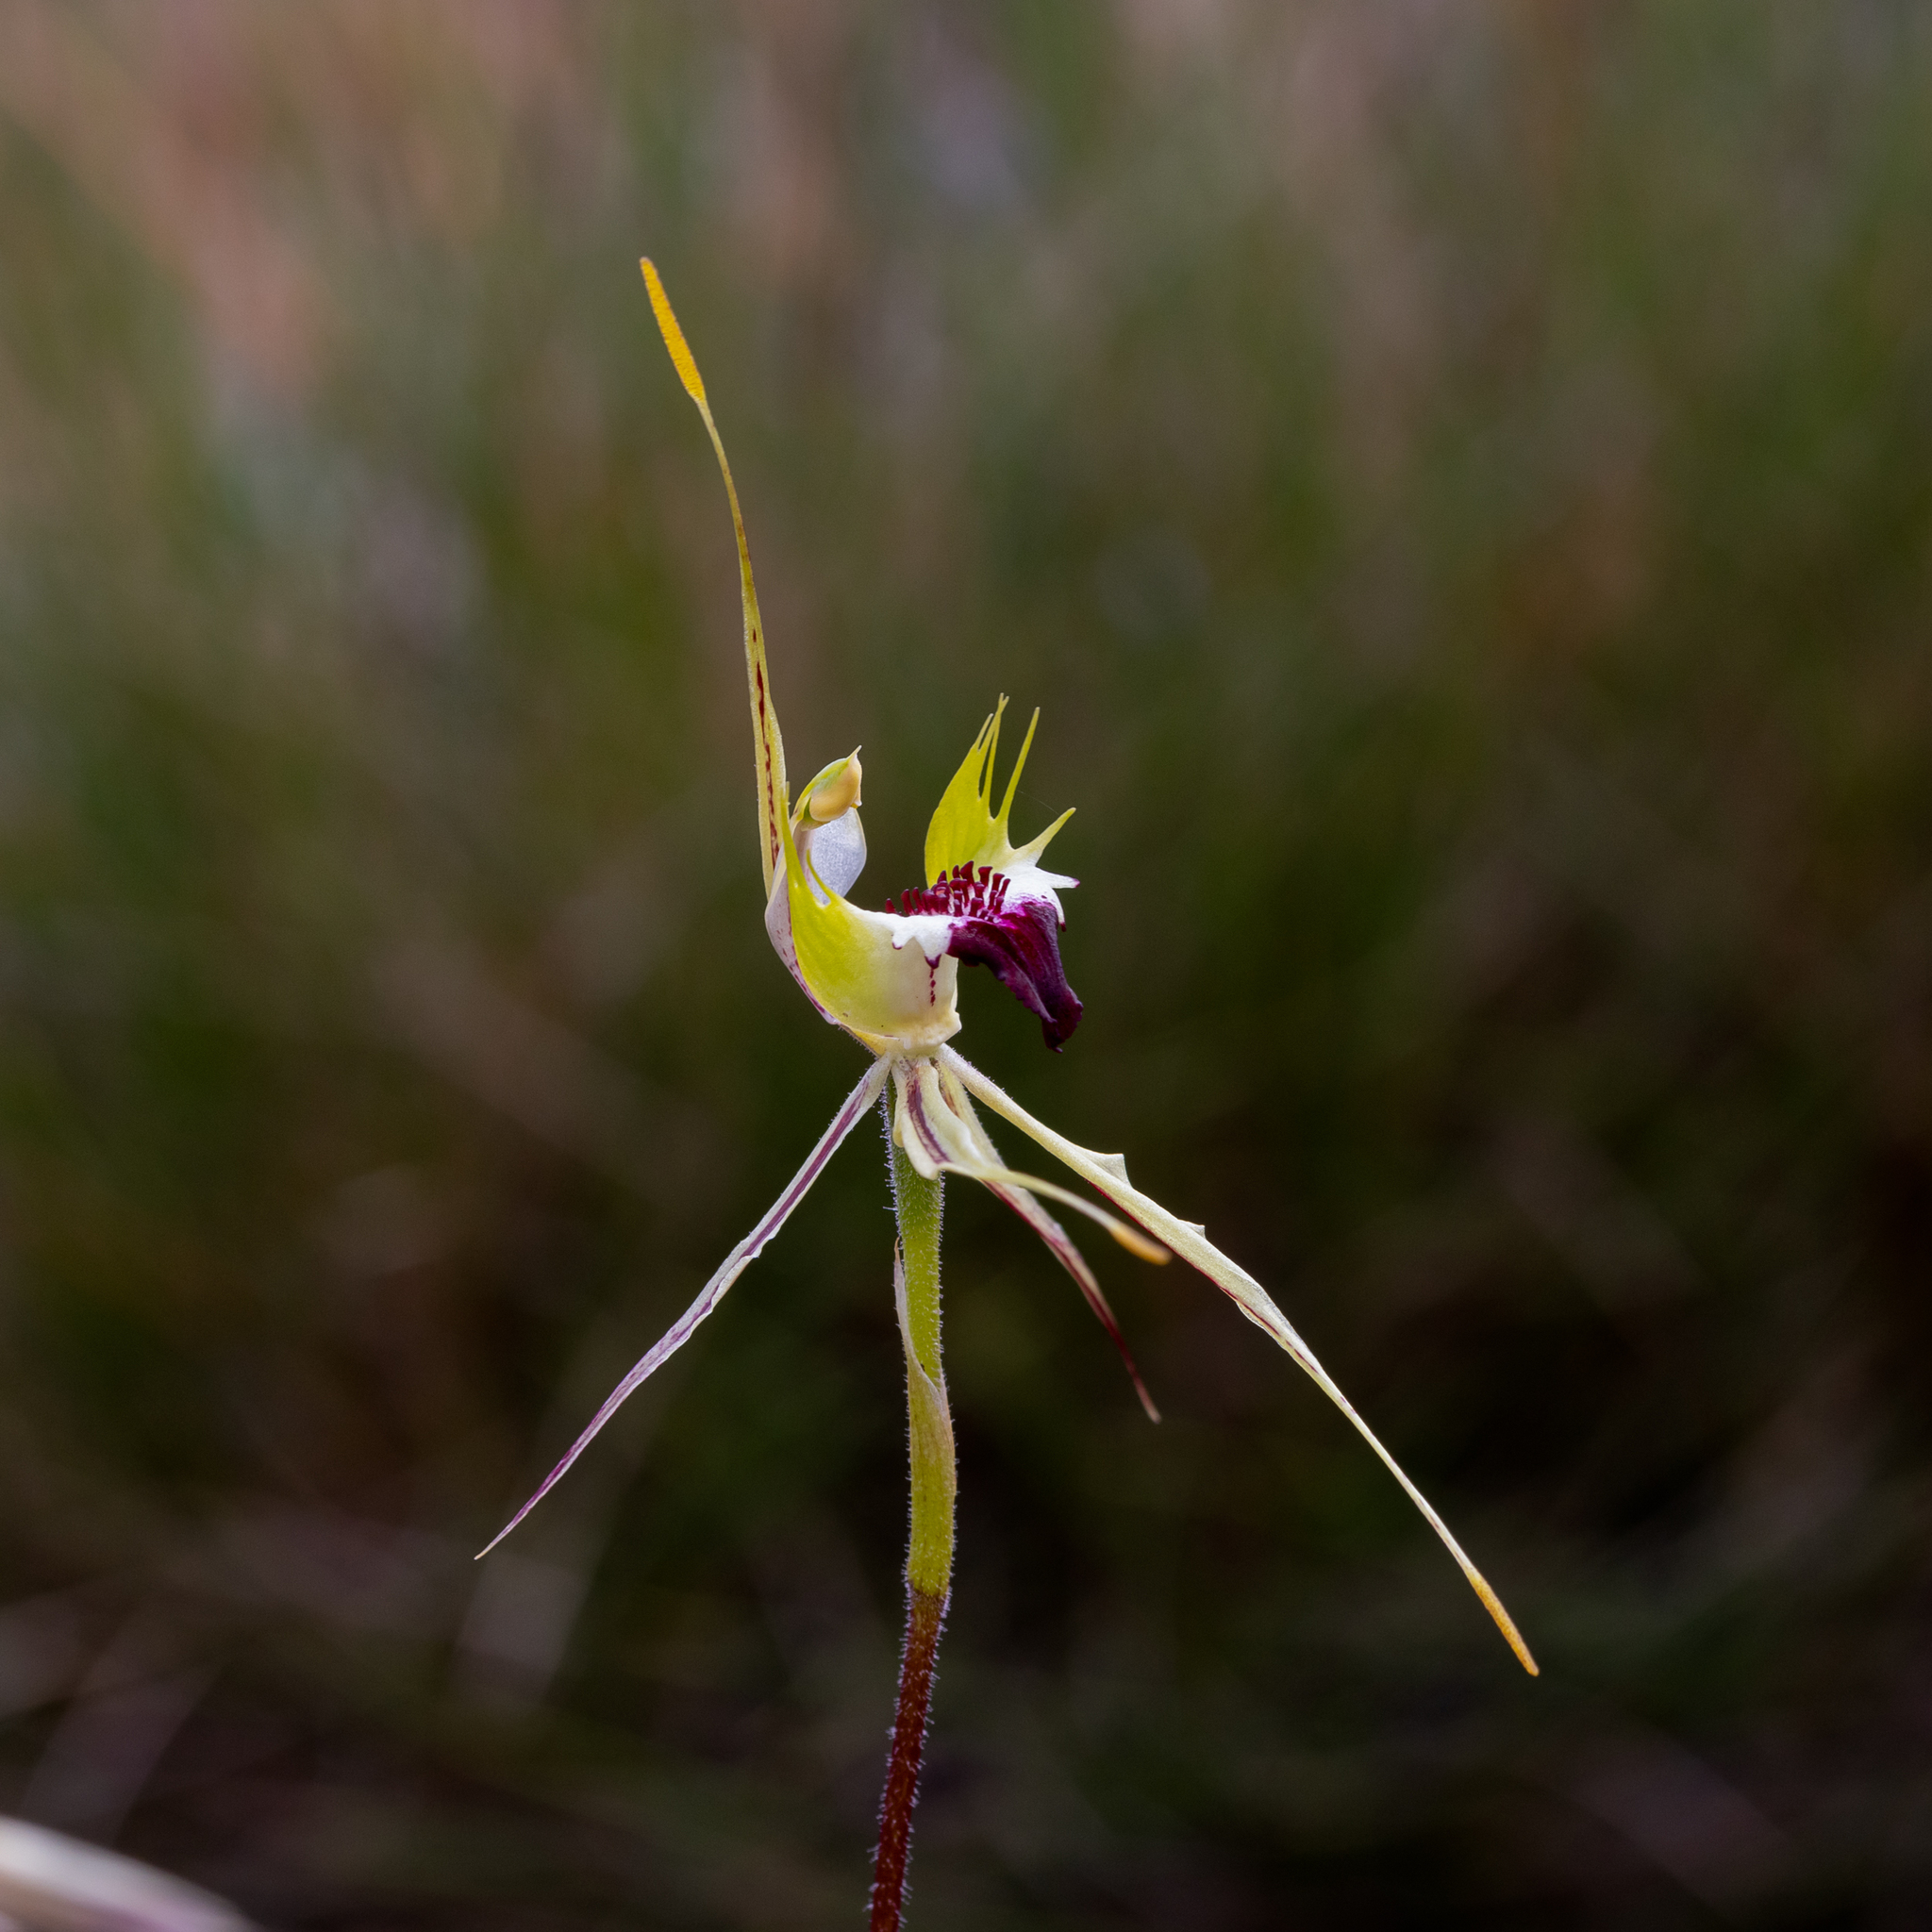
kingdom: Plantae
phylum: Tracheophyta
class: Liliopsida
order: Asparagales
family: Orchidaceae
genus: Caladenia
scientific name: Caladenia interanea
